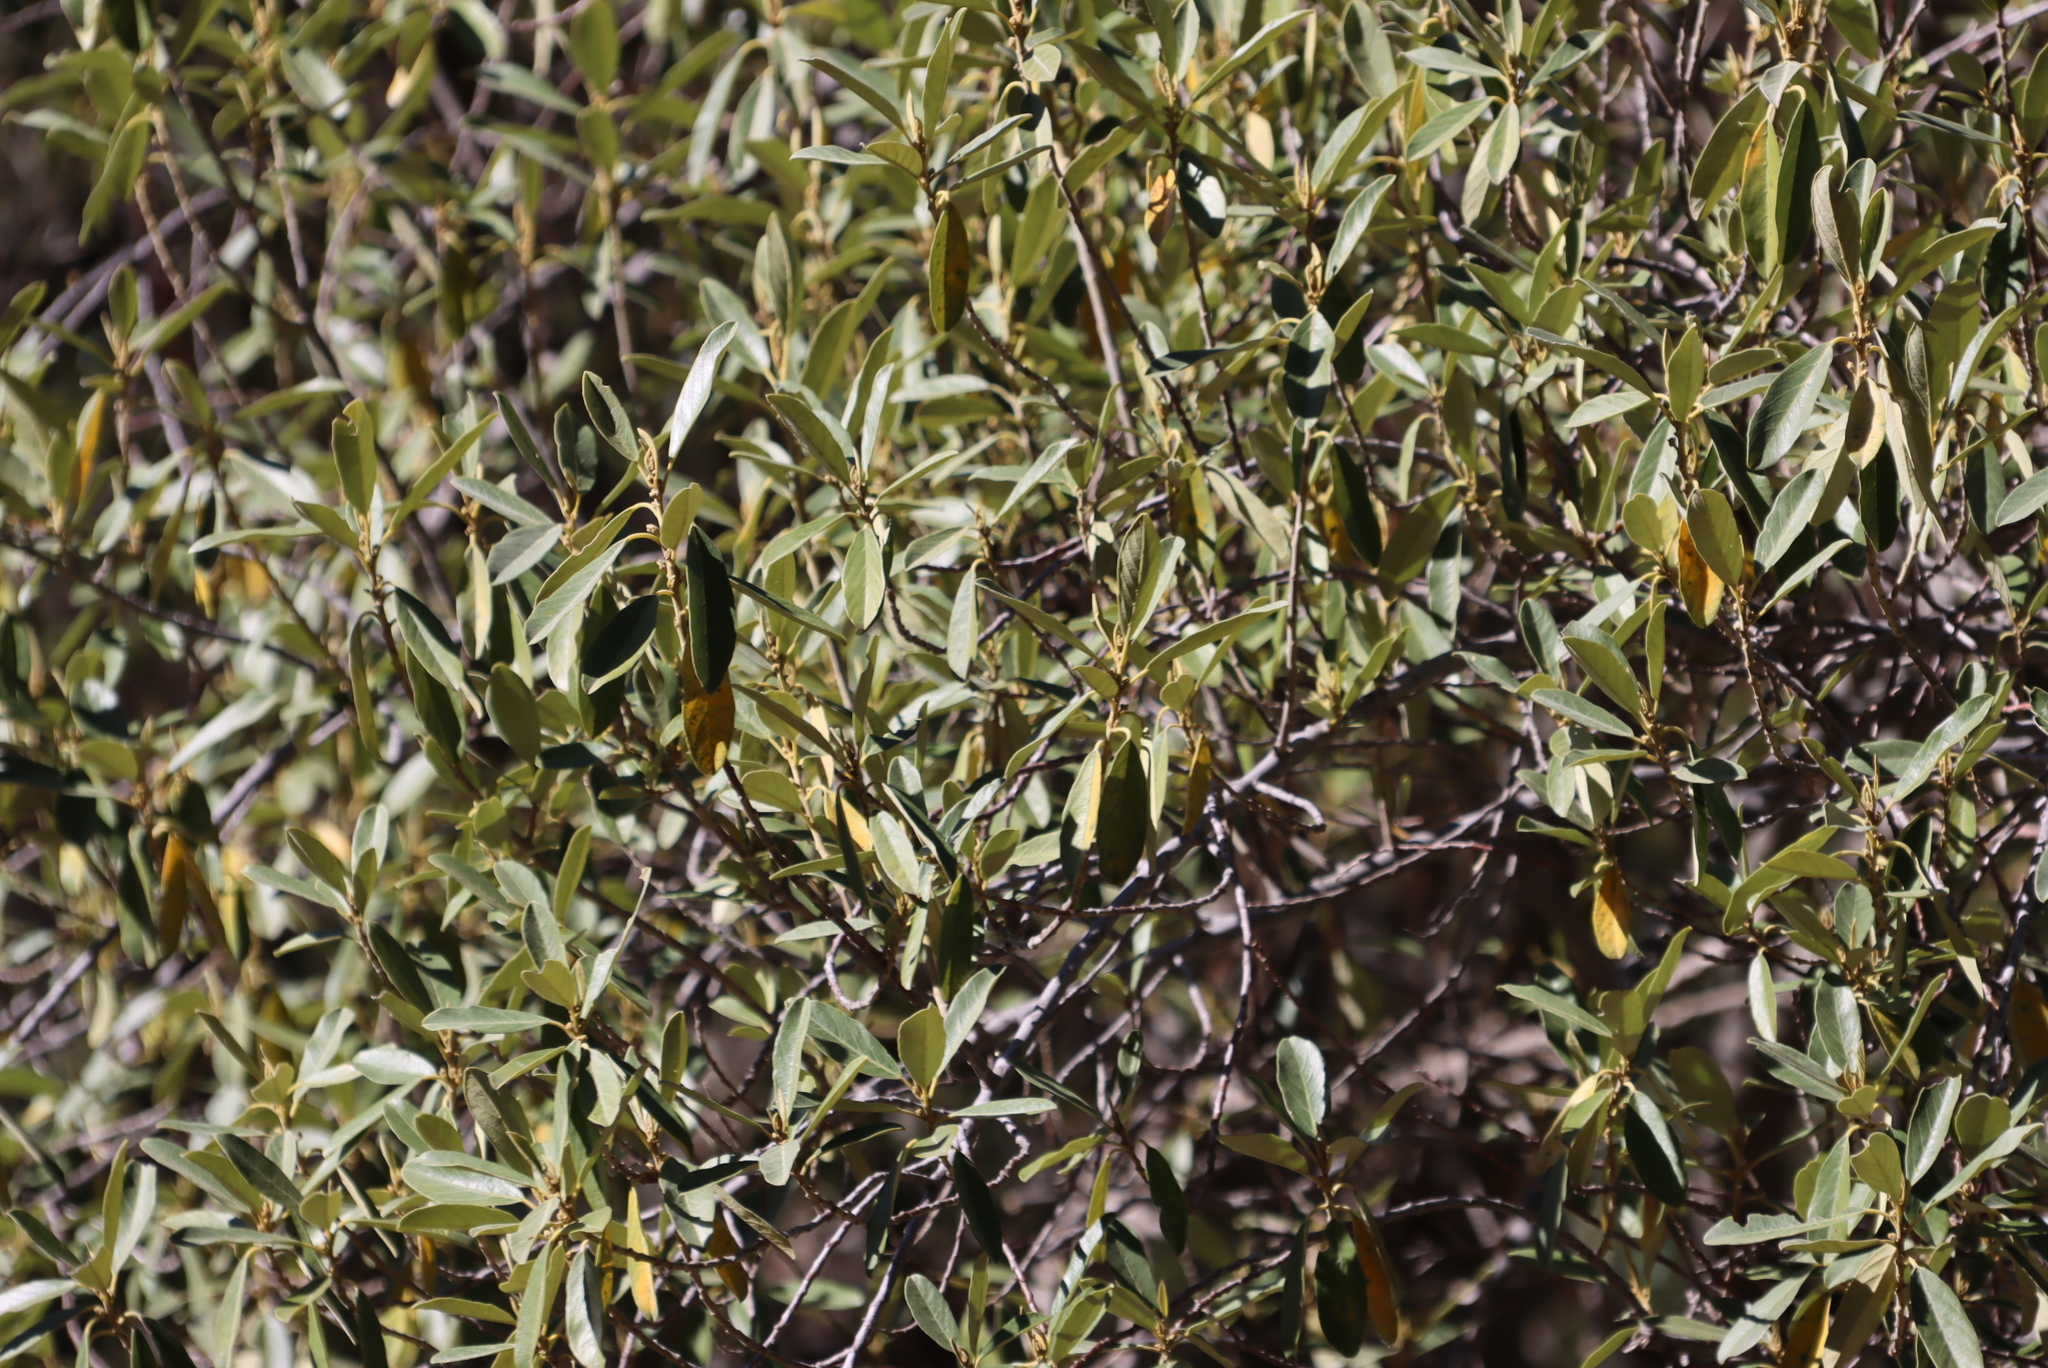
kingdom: Plantae
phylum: Tracheophyta
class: Magnoliopsida
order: Malpighiales
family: Achariaceae
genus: Kiggelaria
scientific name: Kiggelaria africana
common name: Wild peach
